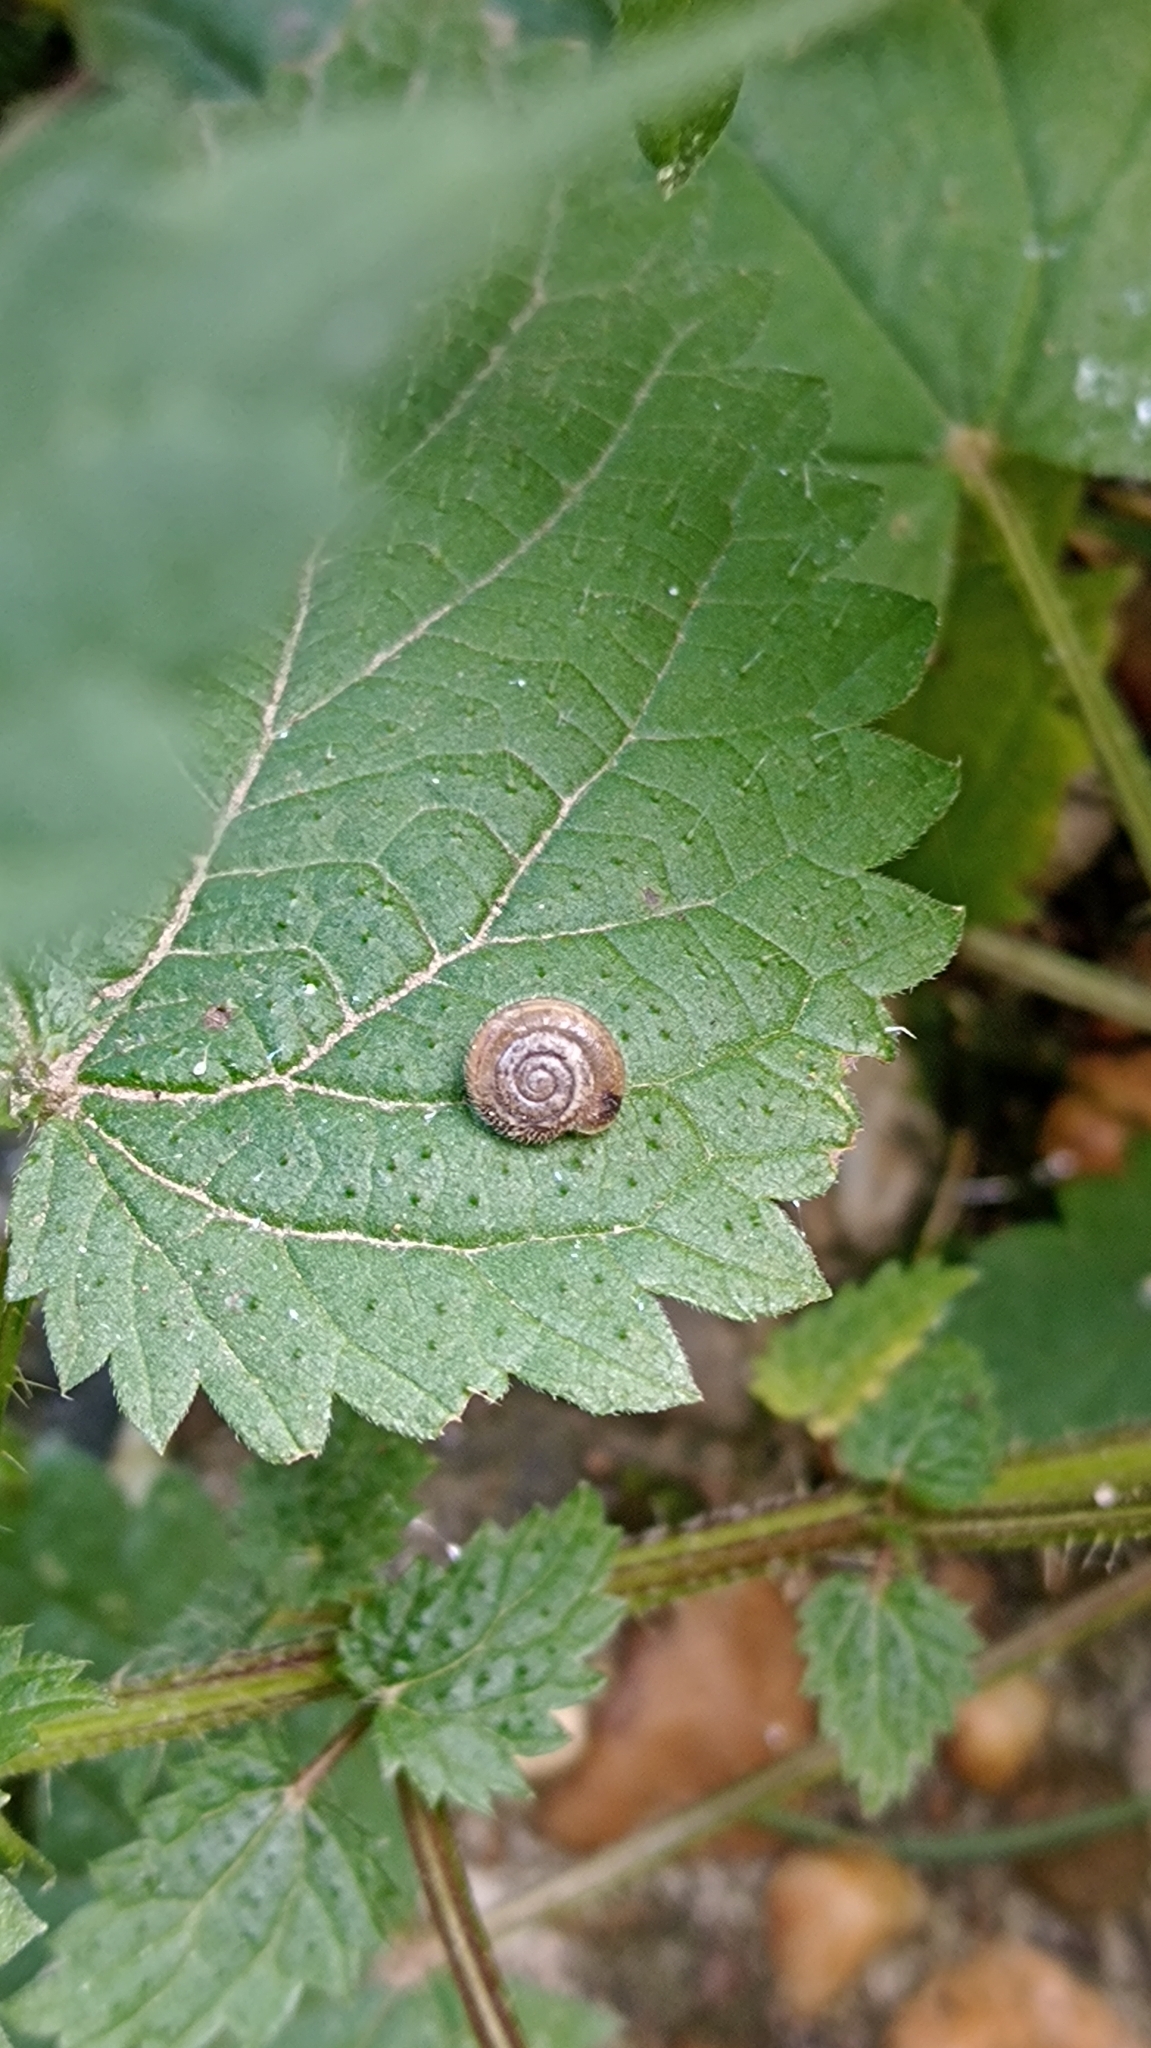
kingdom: Animalia
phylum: Mollusca
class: Gastropoda
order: Stylommatophora
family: Hygromiidae
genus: Trochulus
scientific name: Trochulus hispidus
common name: Hairy snail
